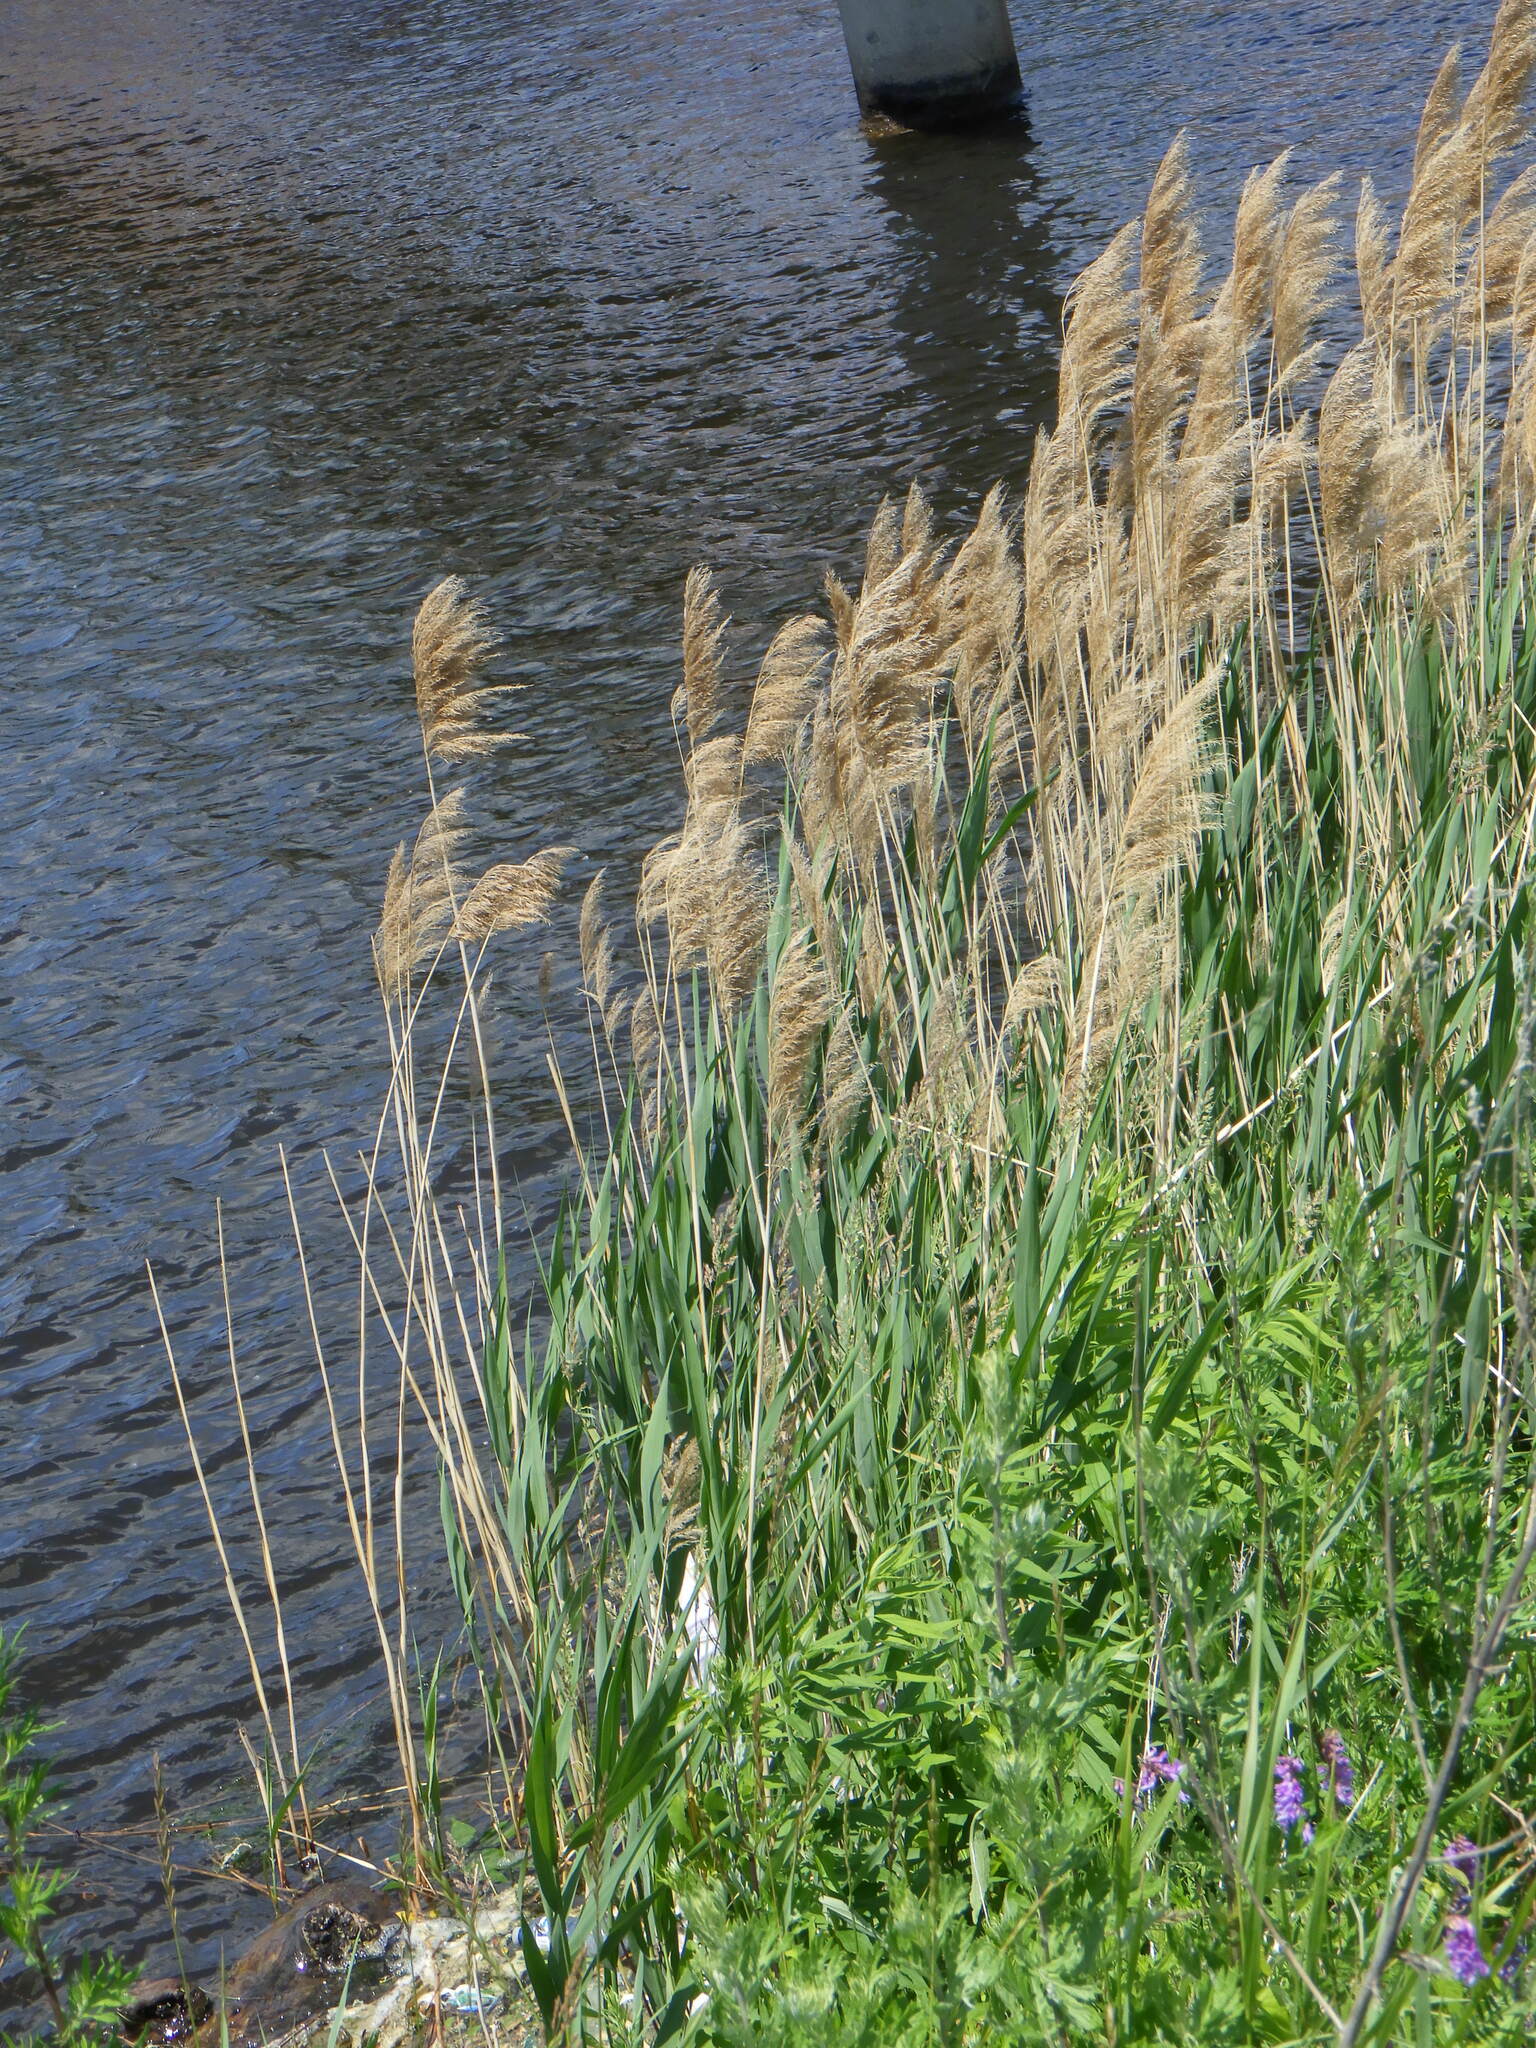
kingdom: Plantae
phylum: Tracheophyta
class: Liliopsida
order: Poales
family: Poaceae
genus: Phragmites
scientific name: Phragmites australis
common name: Common reed
